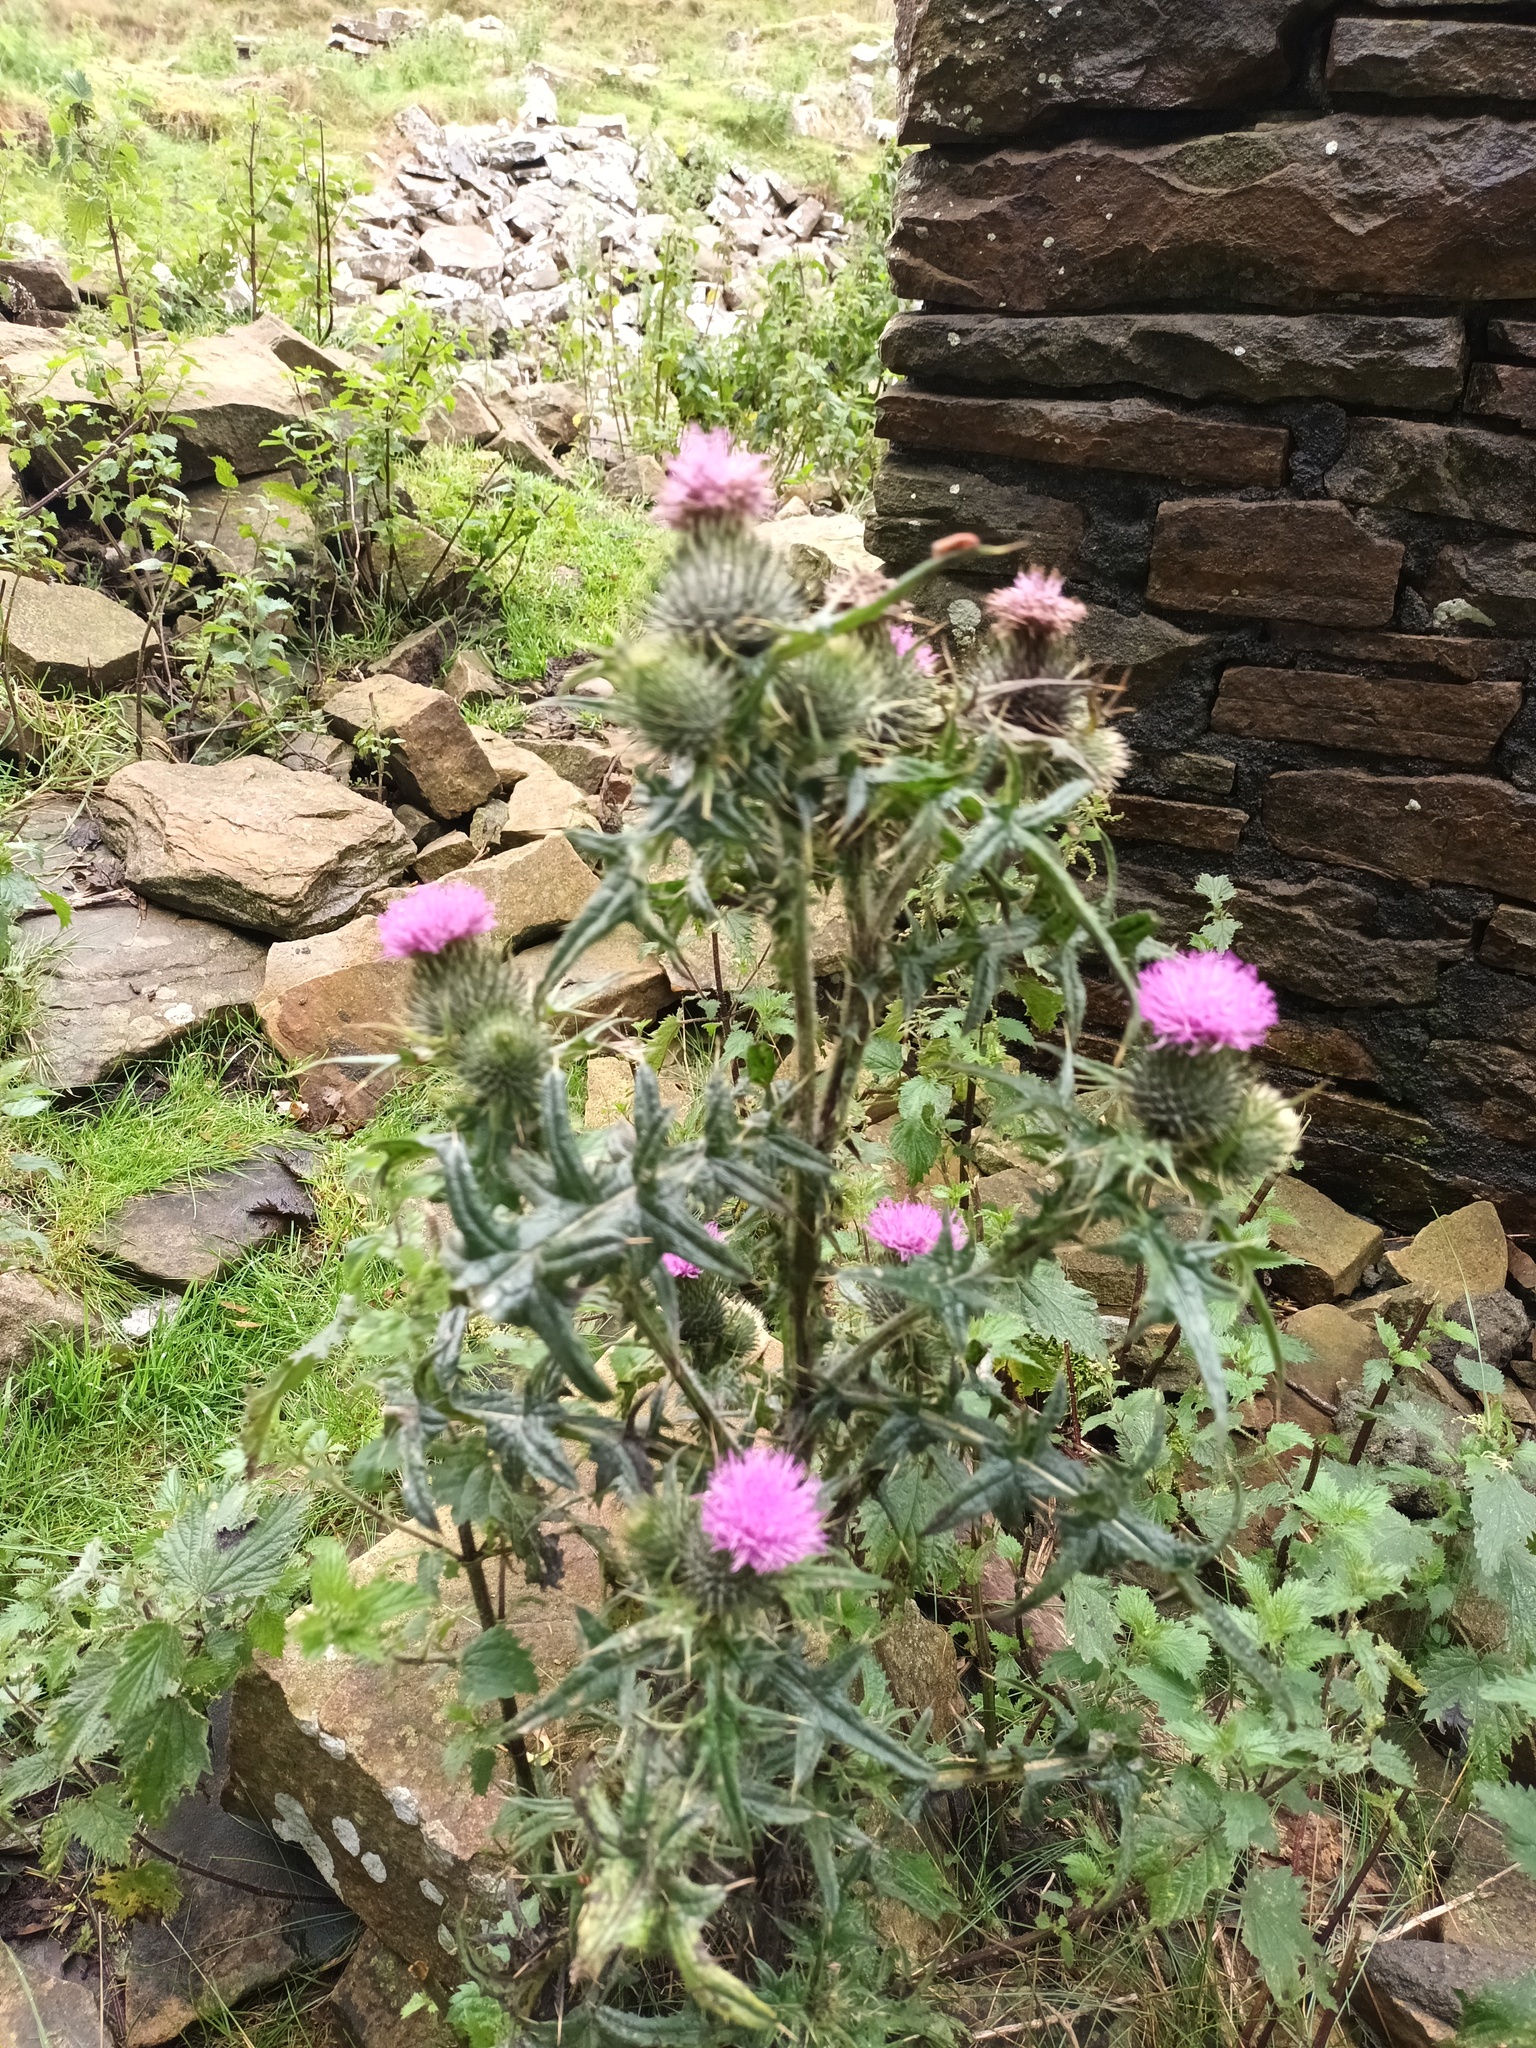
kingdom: Plantae
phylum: Tracheophyta
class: Magnoliopsida
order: Asterales
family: Asteraceae
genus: Cirsium
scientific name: Cirsium vulgare
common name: Bull thistle
